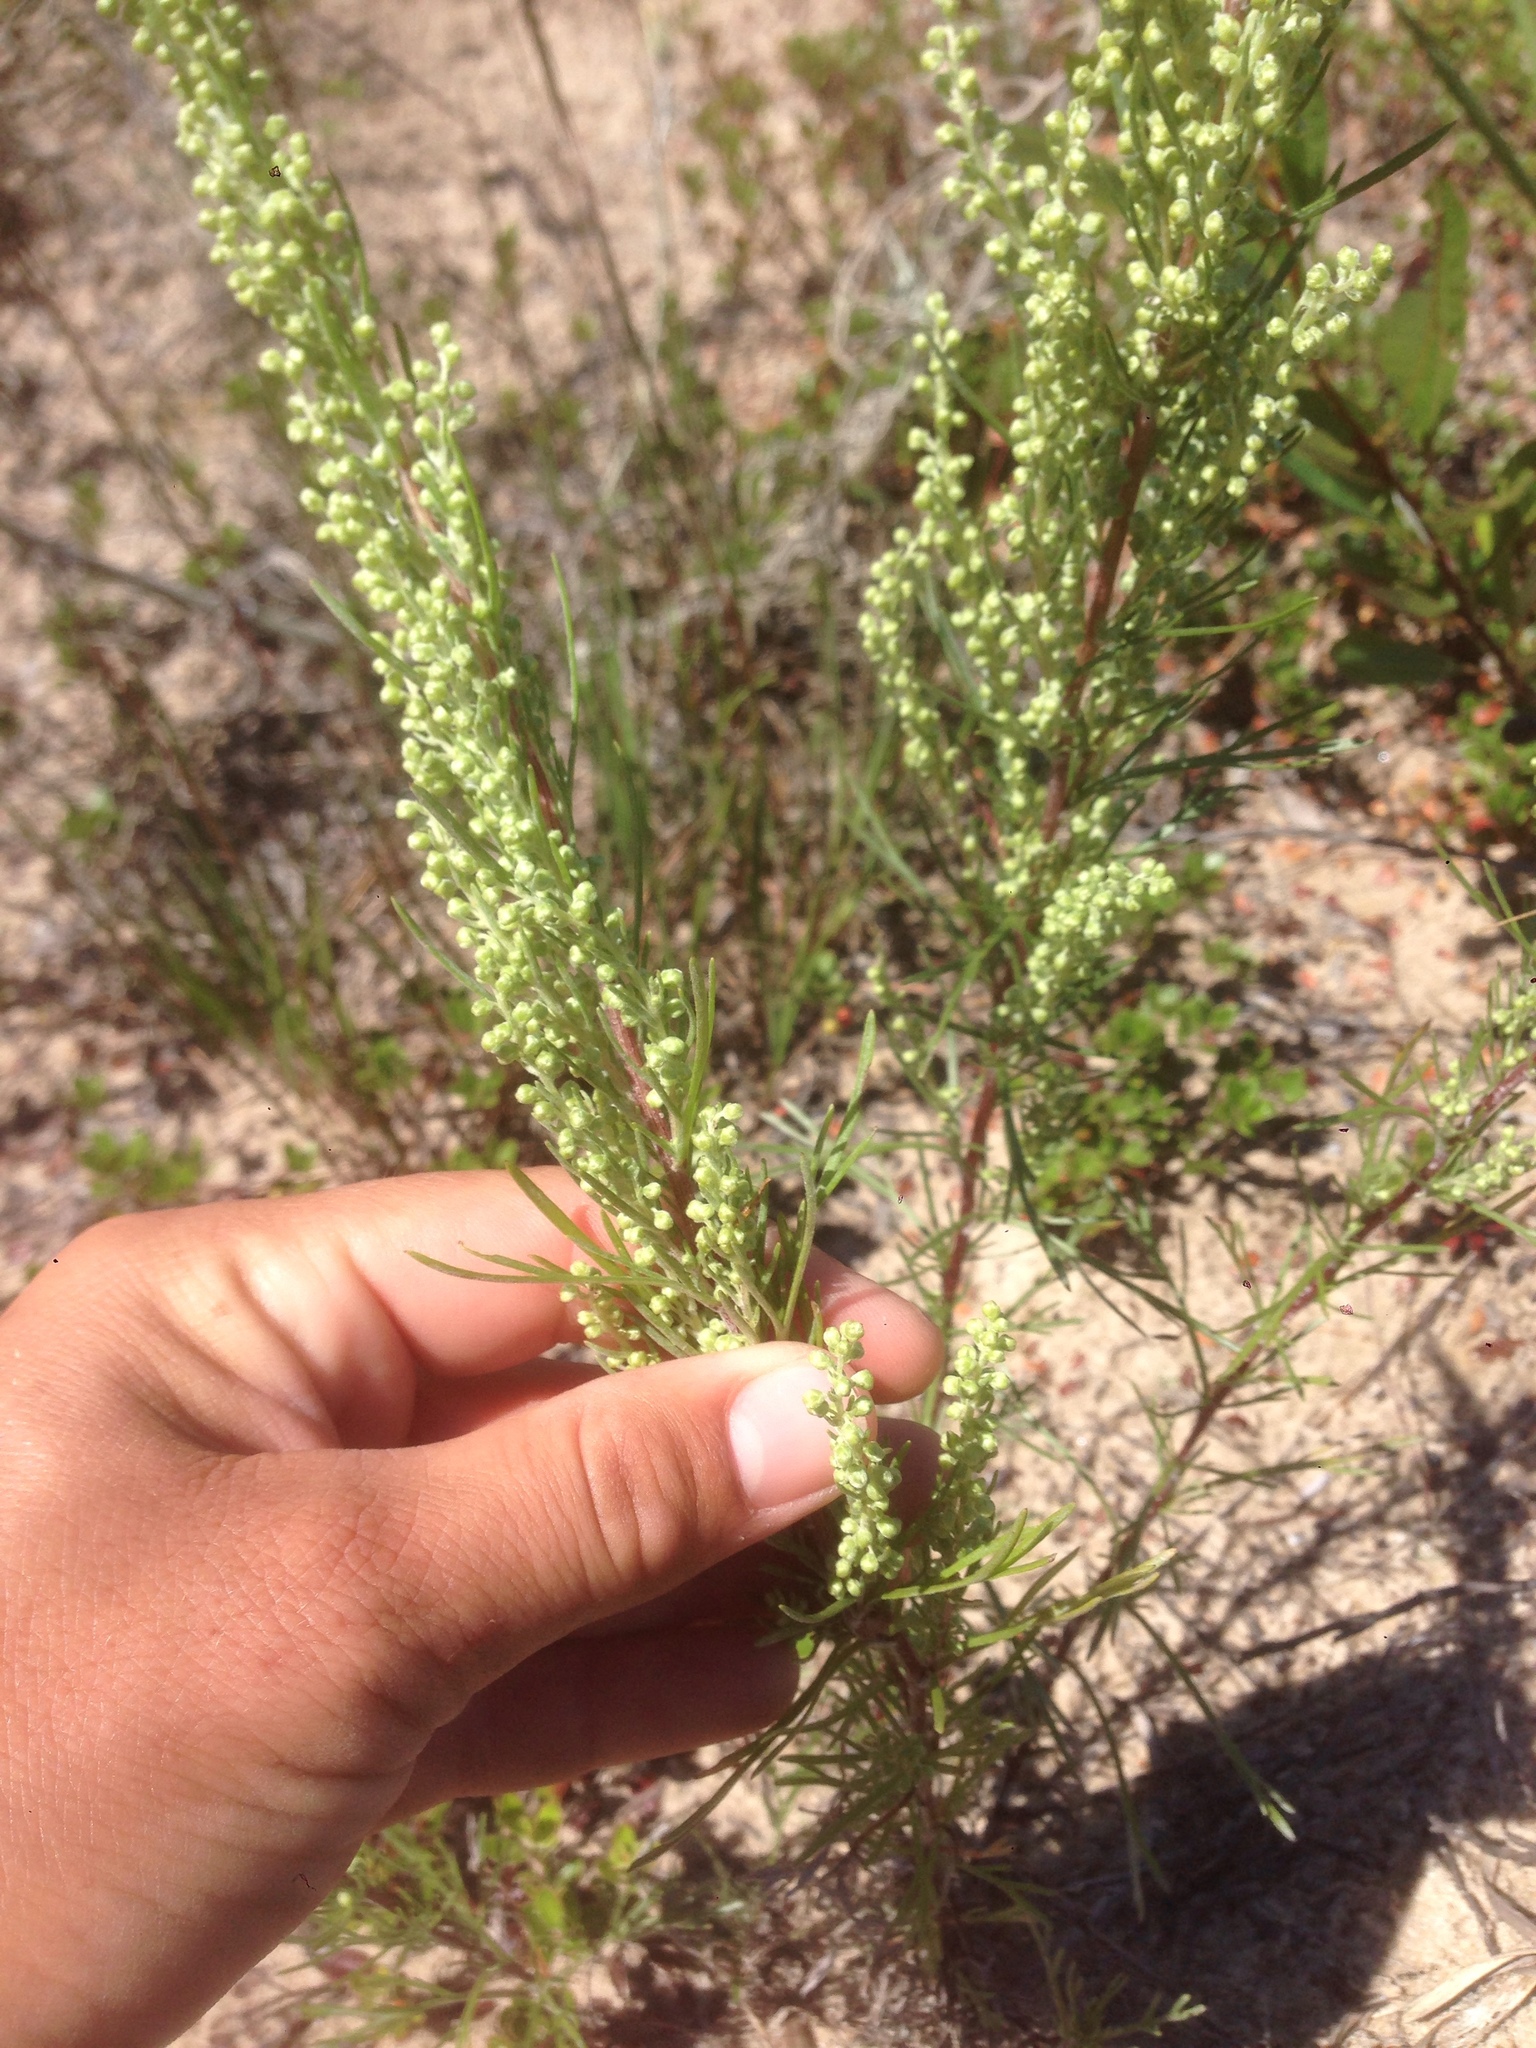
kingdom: Plantae
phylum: Tracheophyta
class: Magnoliopsida
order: Asterales
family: Asteraceae
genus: Artemisia
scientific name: Artemisia campestris
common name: Field wormwood
